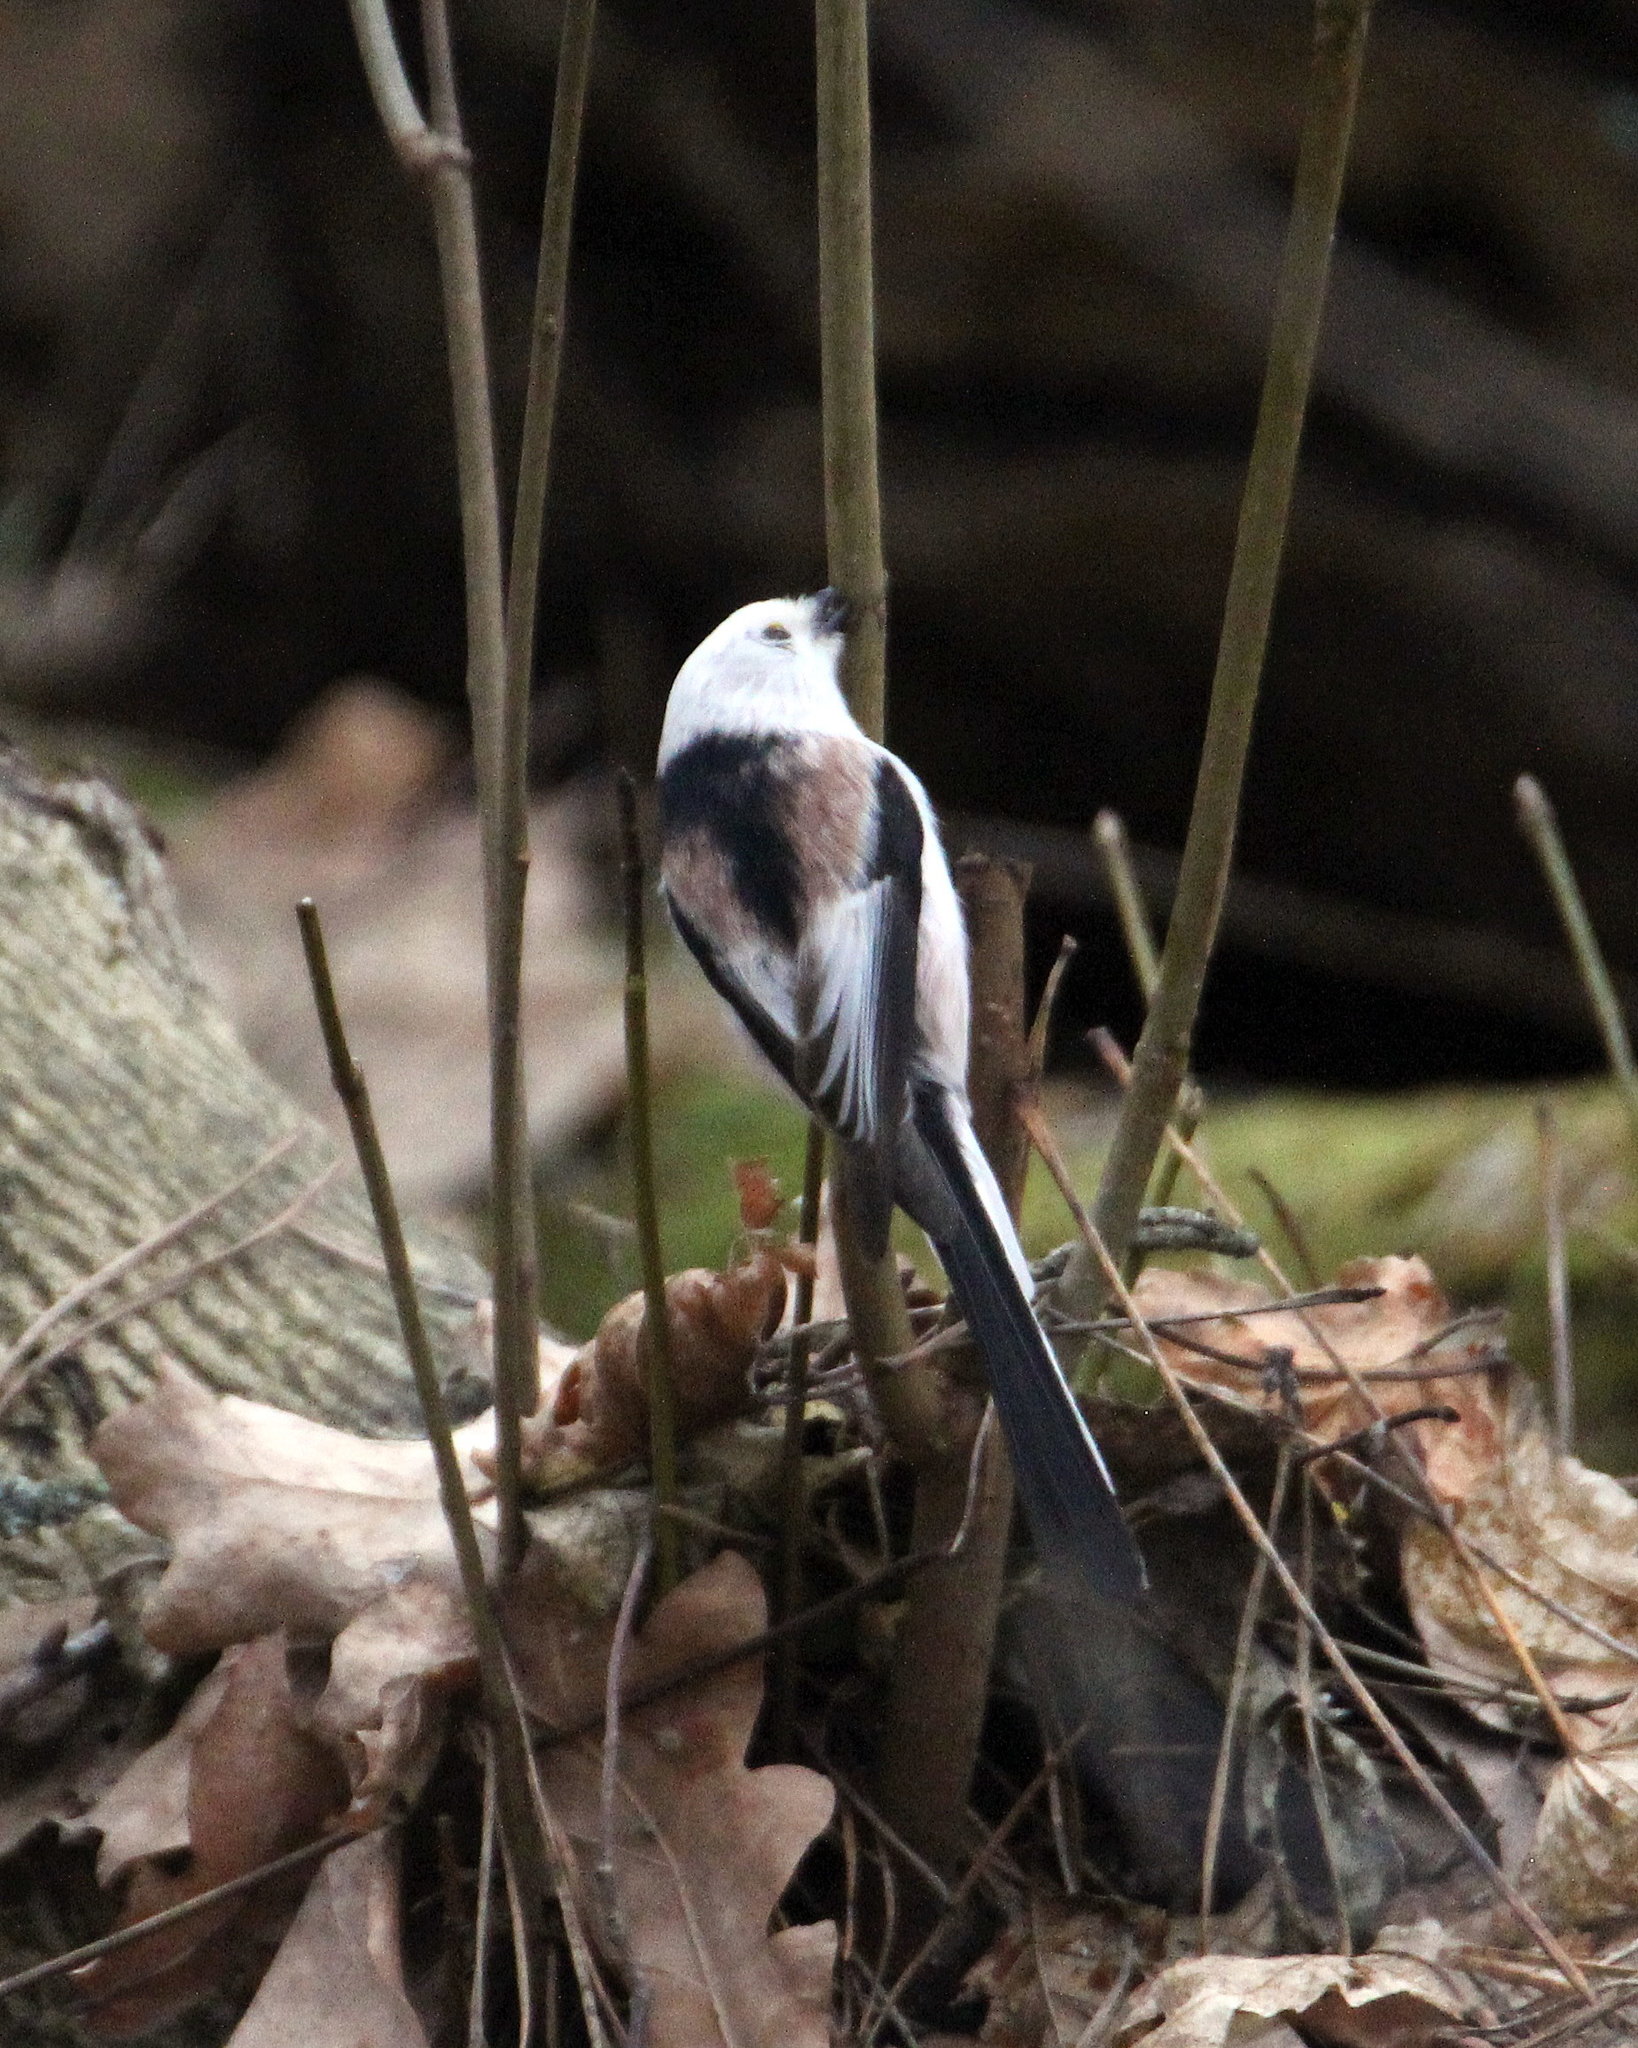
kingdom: Animalia
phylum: Chordata
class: Aves
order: Passeriformes
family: Aegithalidae
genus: Aegithalos
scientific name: Aegithalos caudatus
